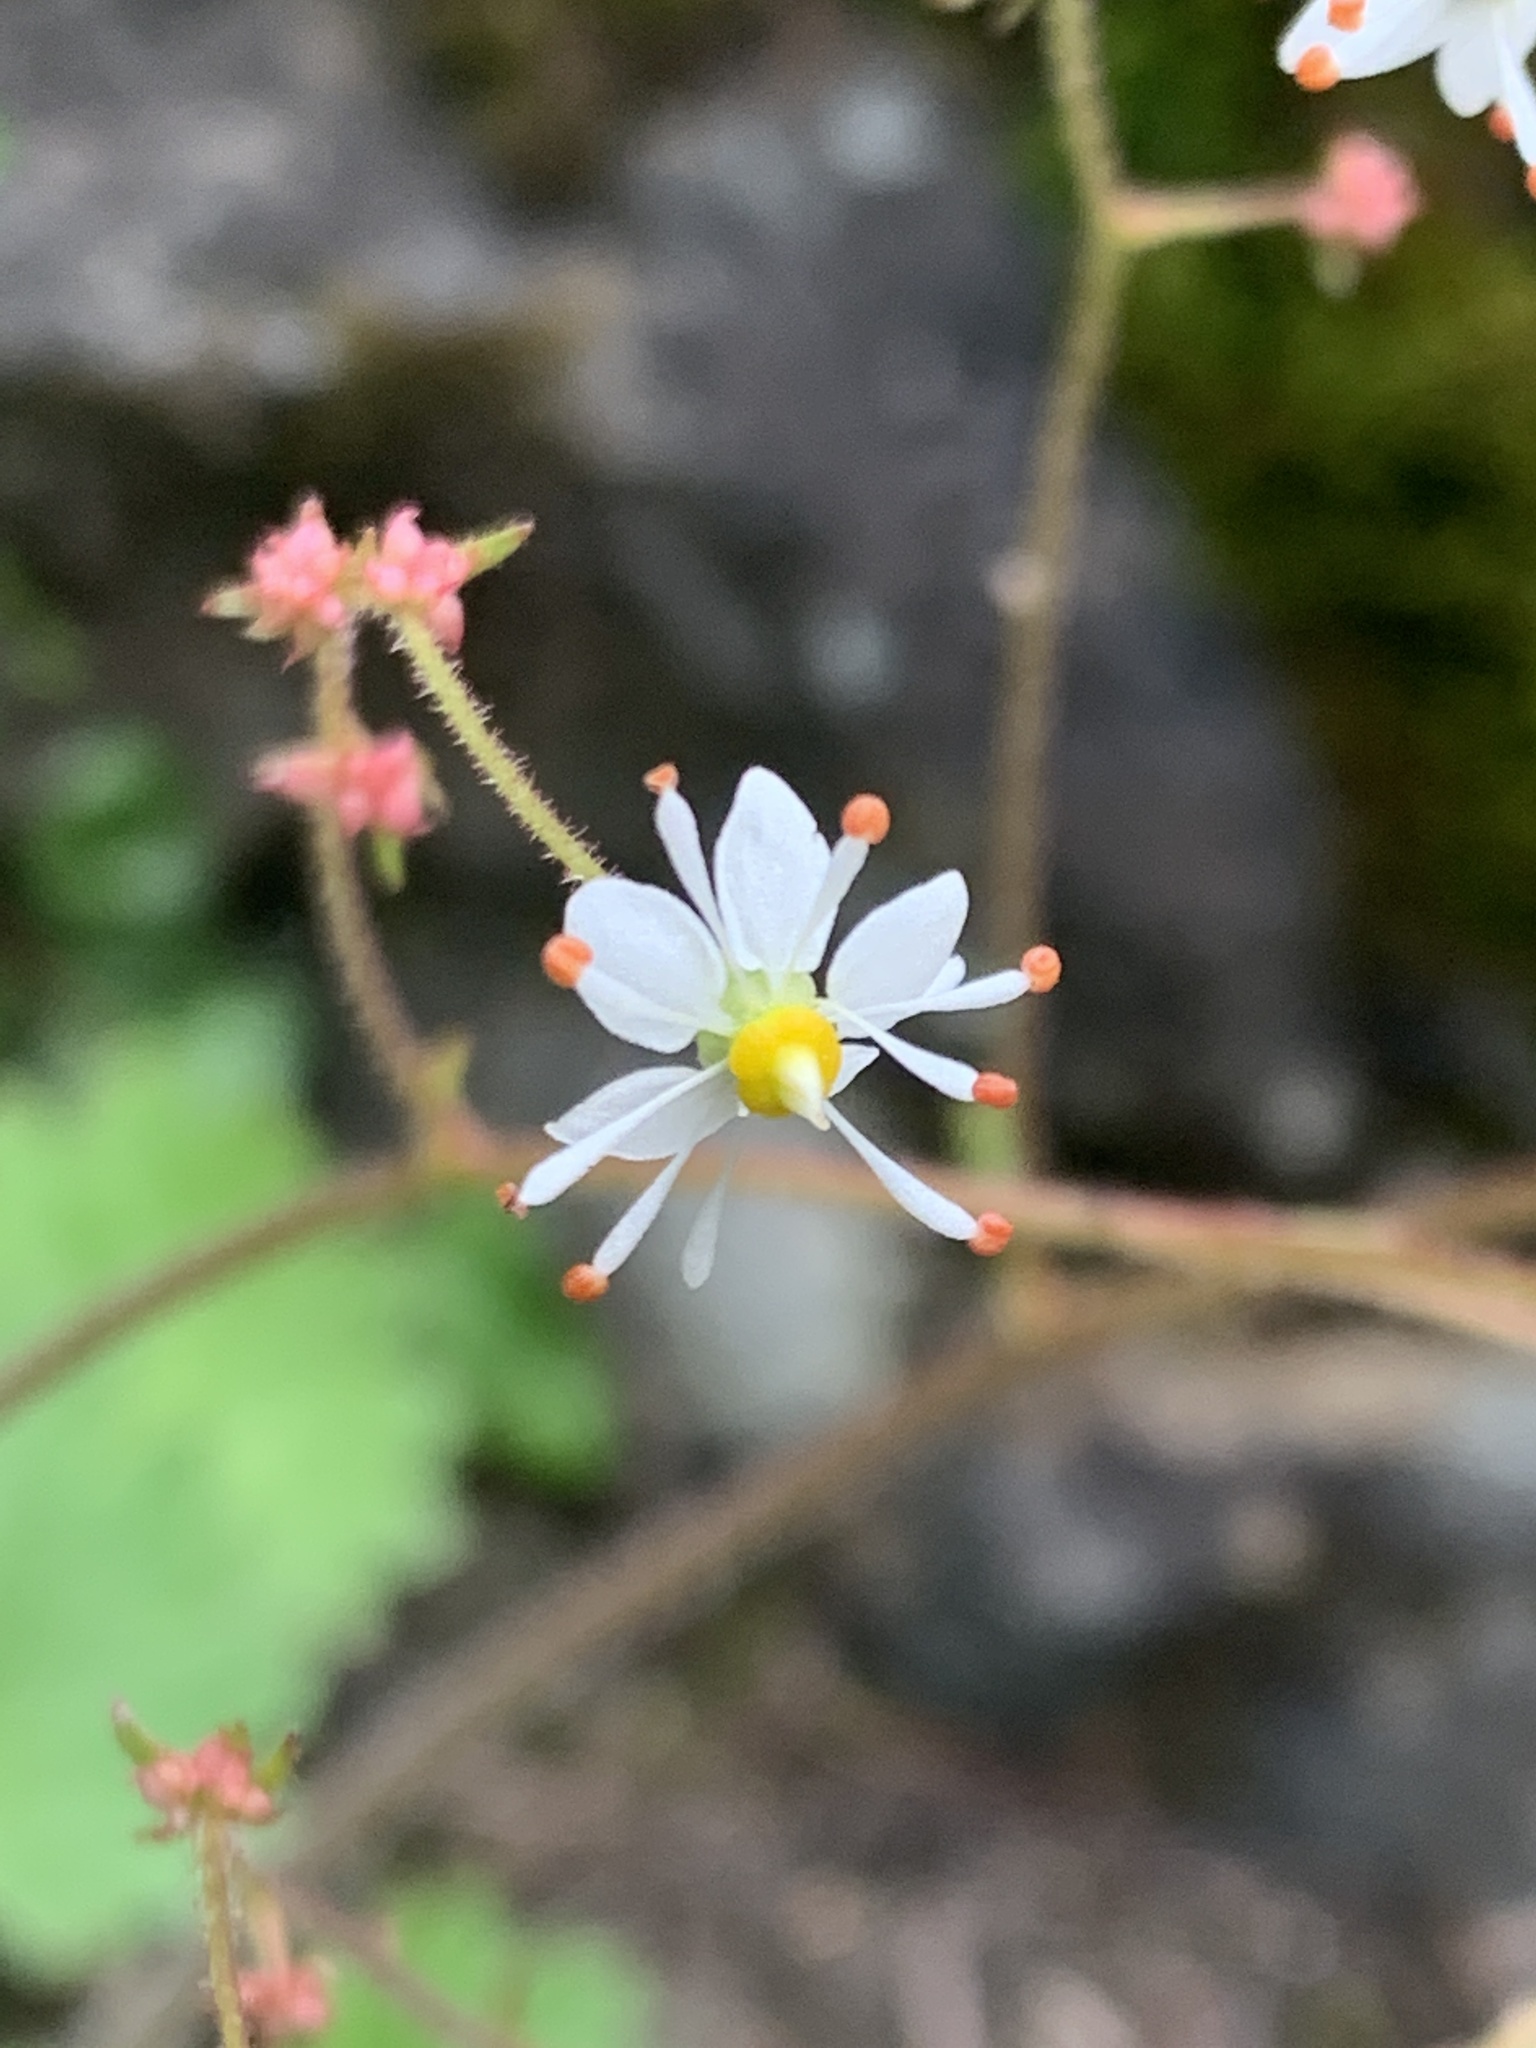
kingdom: Plantae
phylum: Tracheophyta
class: Magnoliopsida
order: Saxifragales
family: Saxifragaceae
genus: Micranthes
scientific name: Micranthes mertensiana
